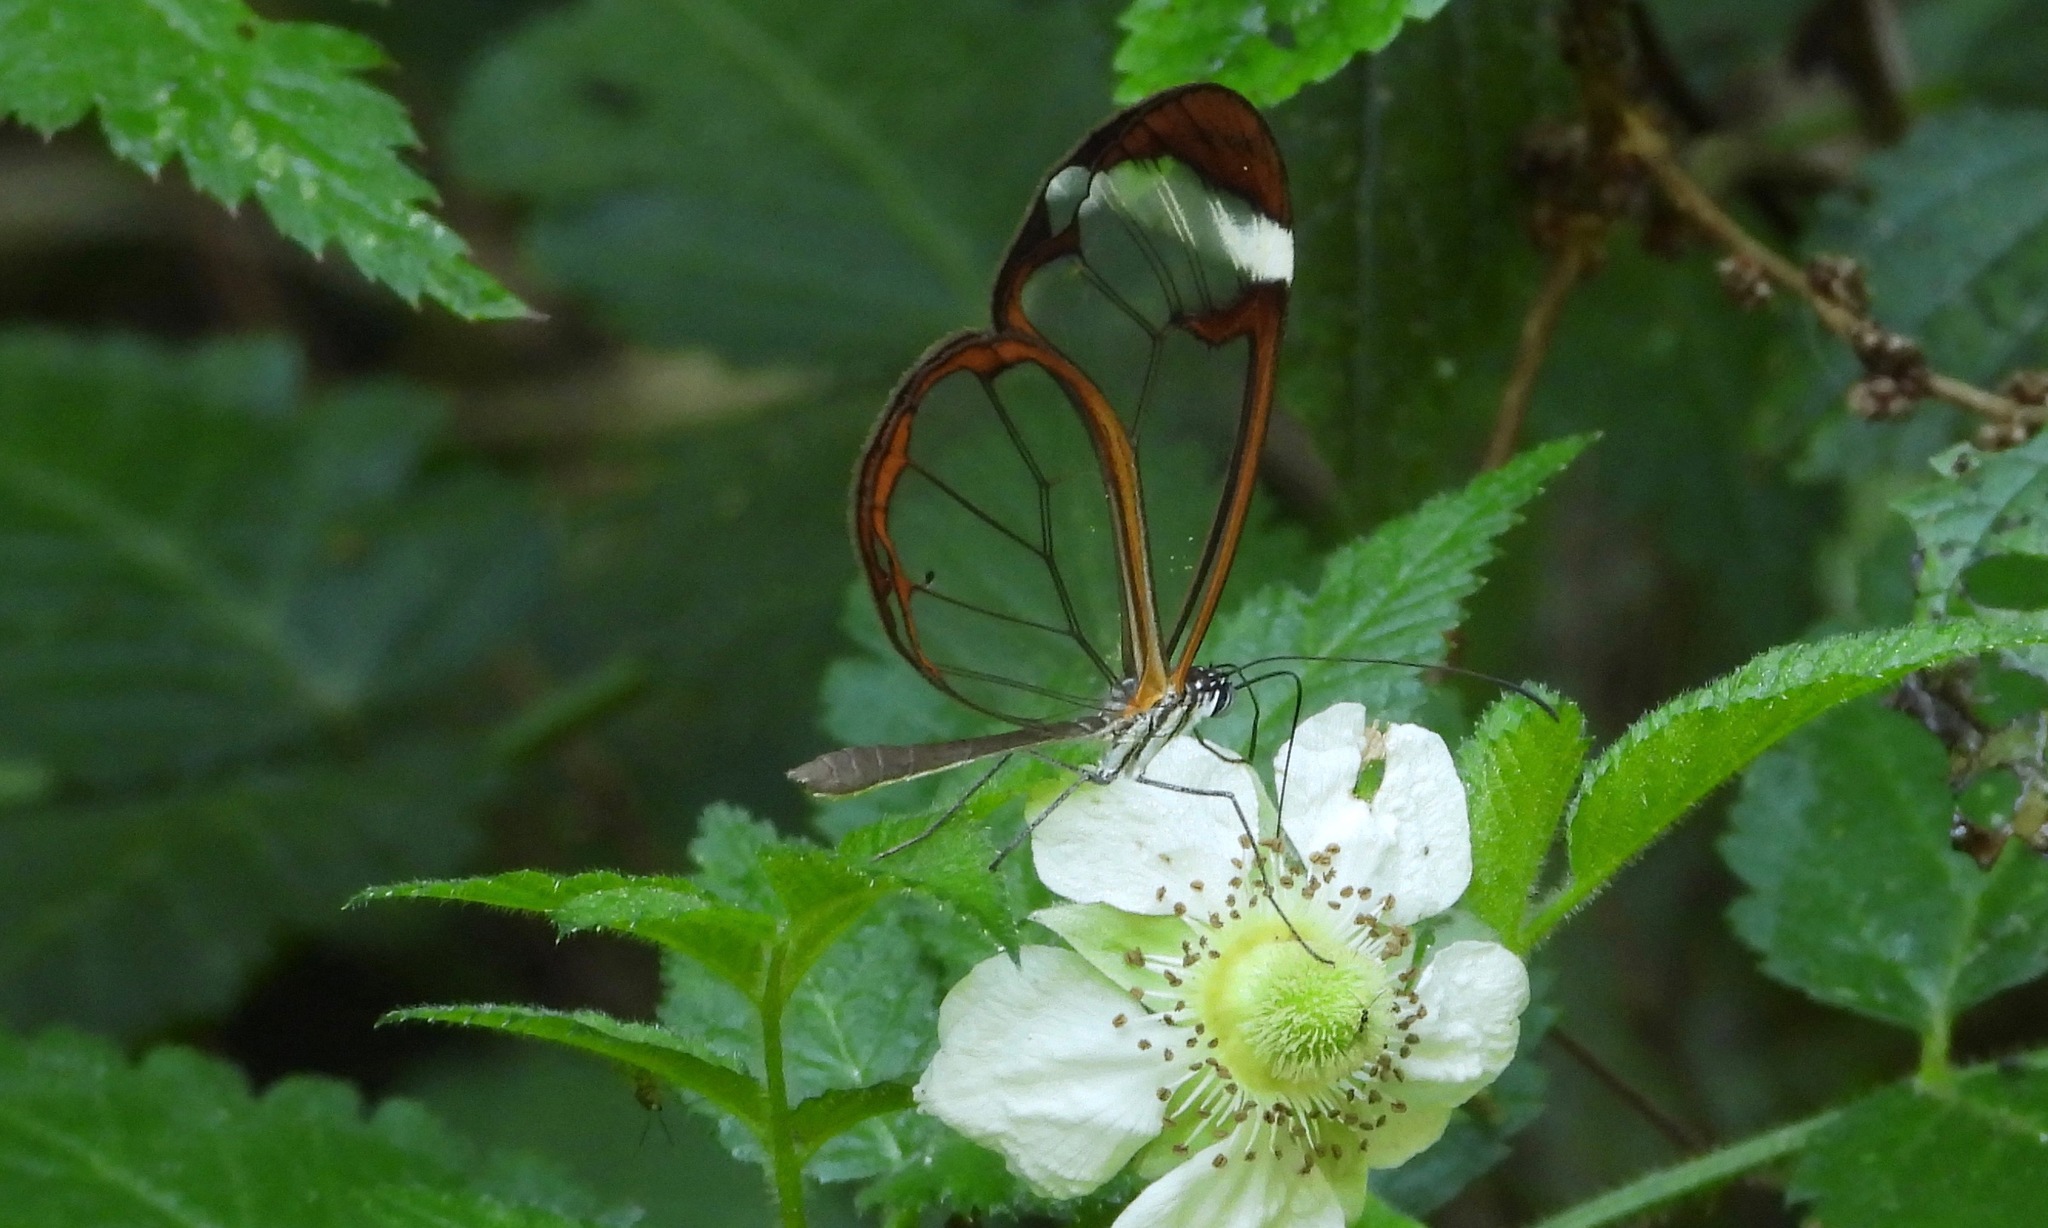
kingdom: Animalia
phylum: Arthropoda
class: Insecta
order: Lepidoptera
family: Nymphalidae
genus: Greta
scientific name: Greta morgane
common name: Thick-tipped greta
